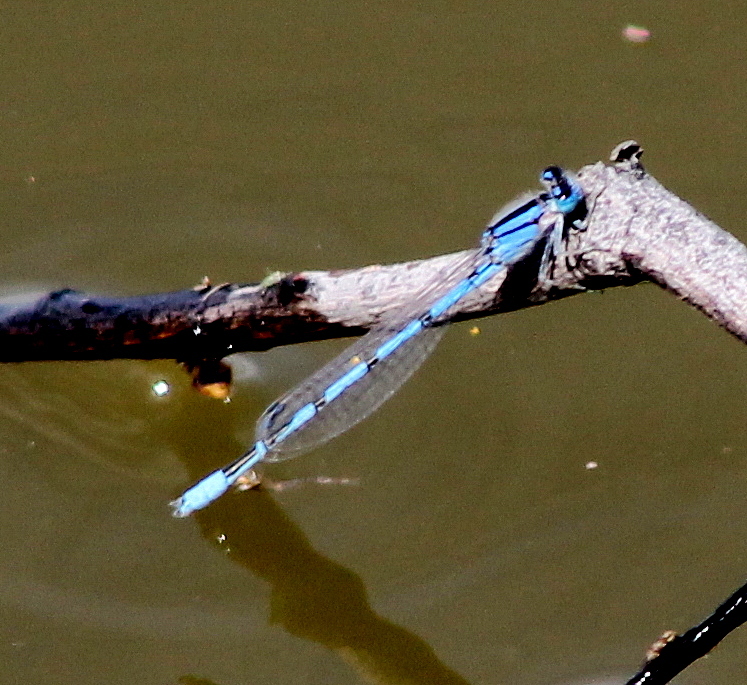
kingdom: Animalia
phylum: Arthropoda
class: Insecta
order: Odonata
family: Coenagrionidae
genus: Enallagma
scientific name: Enallagma civile
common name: Damselfly
